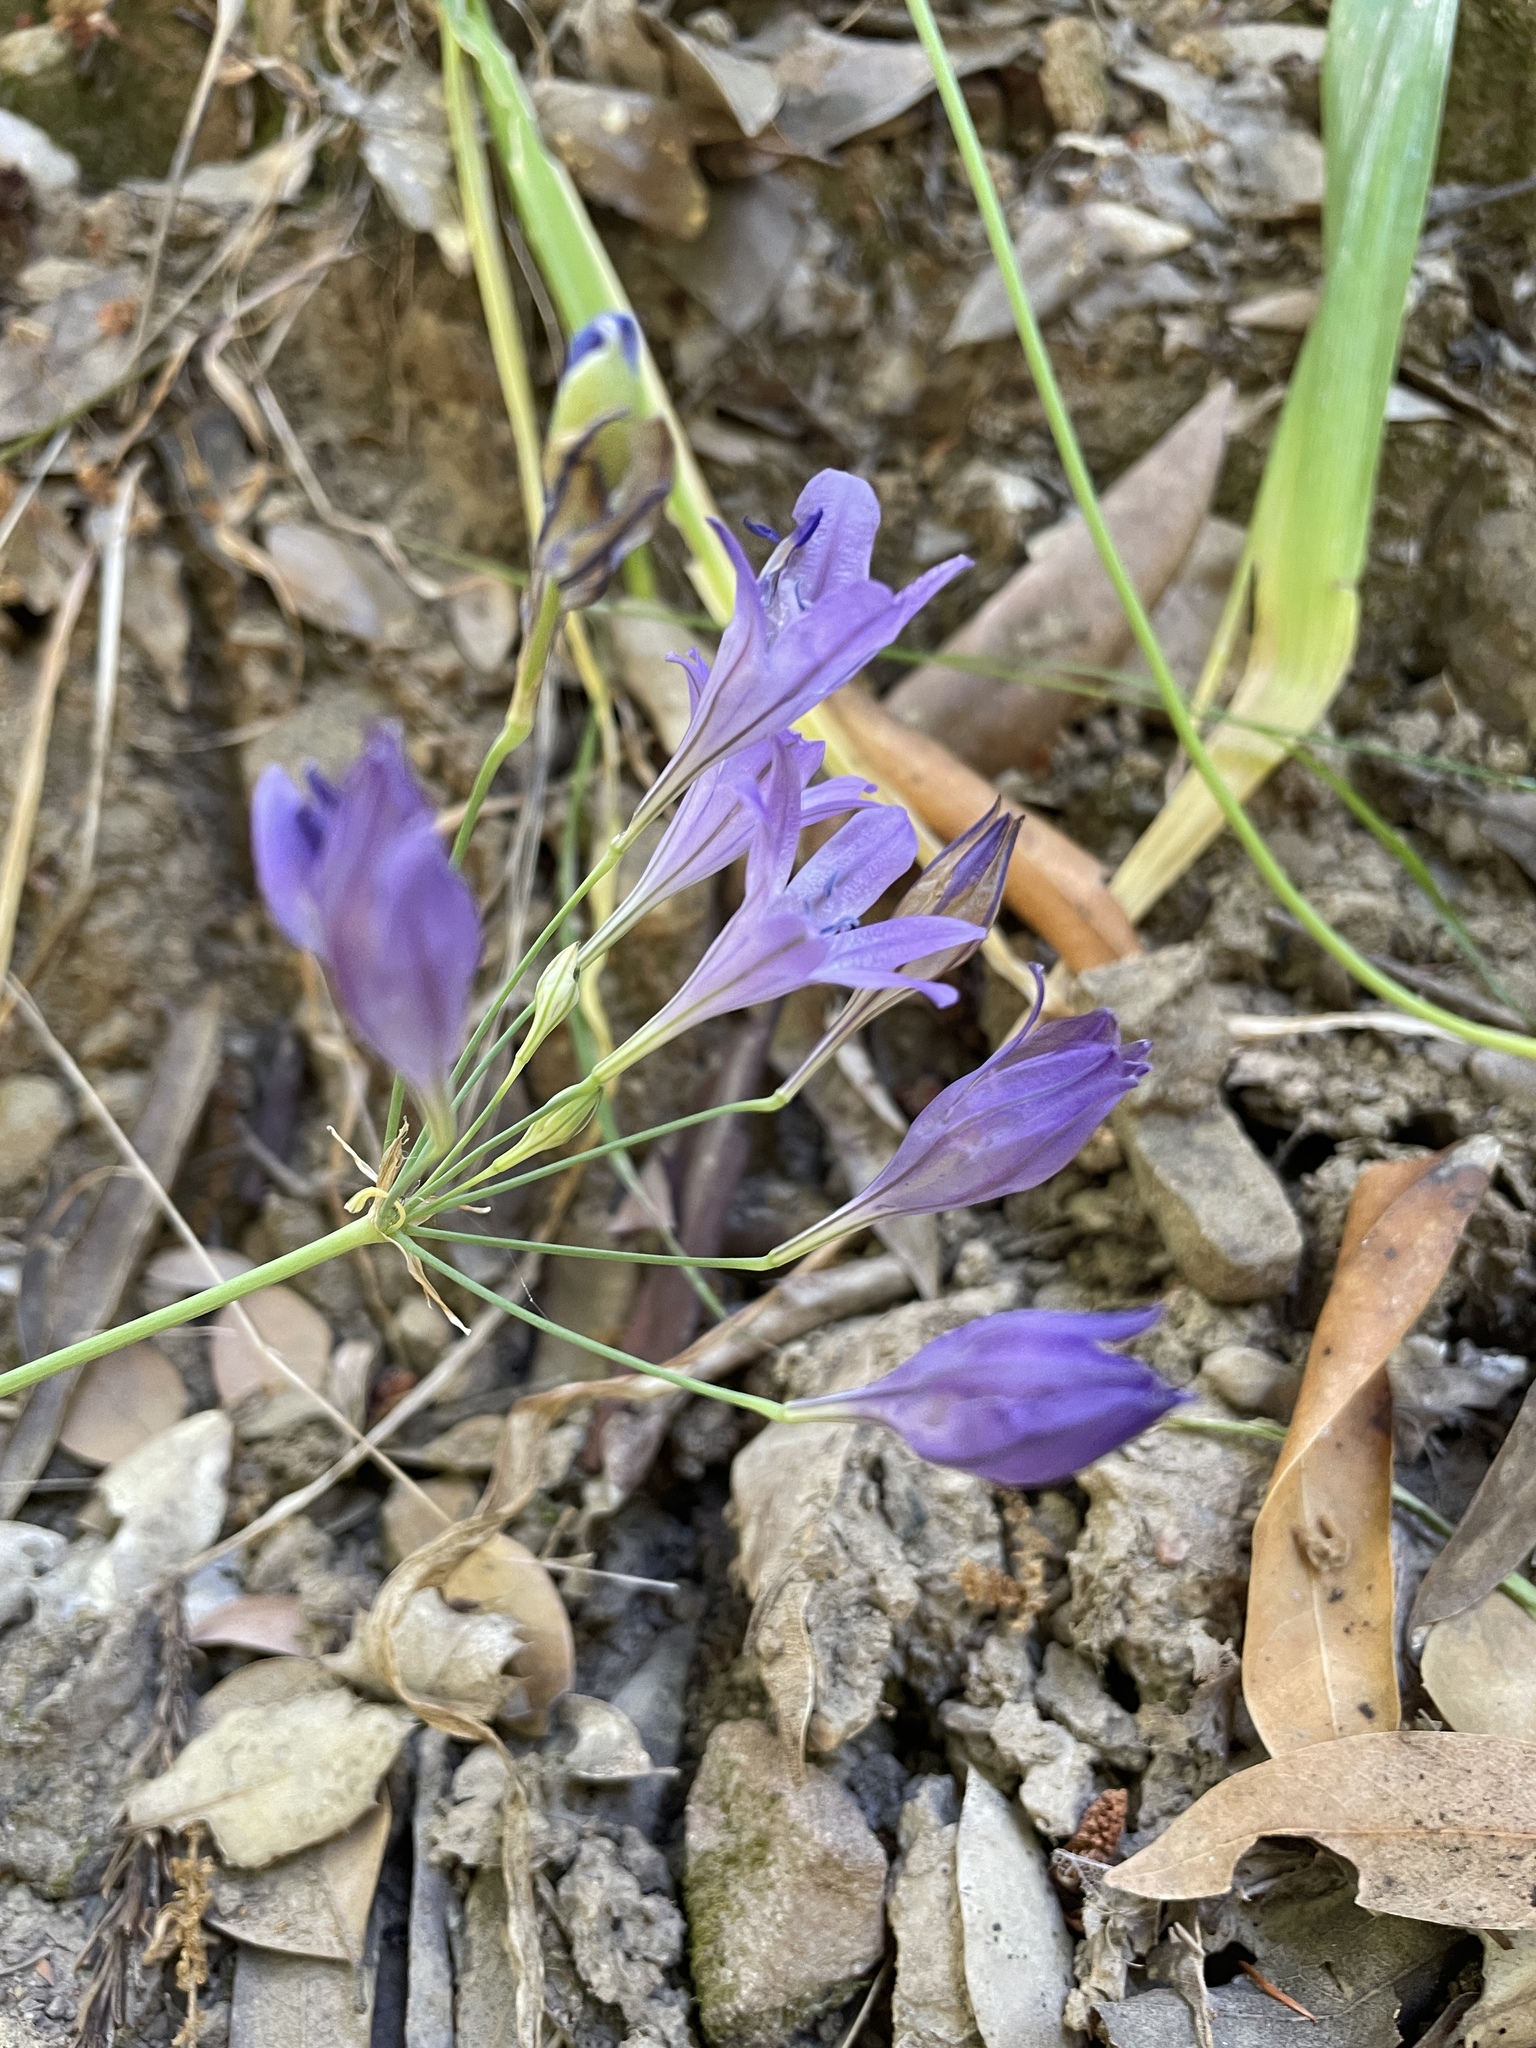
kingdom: Plantae
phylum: Tracheophyta
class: Liliopsida
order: Asparagales
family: Asparagaceae
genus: Triteleia
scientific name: Triteleia laxa
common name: Triplet-lily
